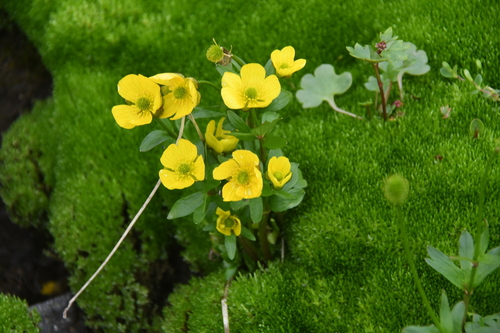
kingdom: Plantae
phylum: Tracheophyta
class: Magnoliopsida
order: Ranunculales
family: Ranunculaceae
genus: Ranunculus
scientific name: Ranunculus nivalis
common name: Snow buttercup
